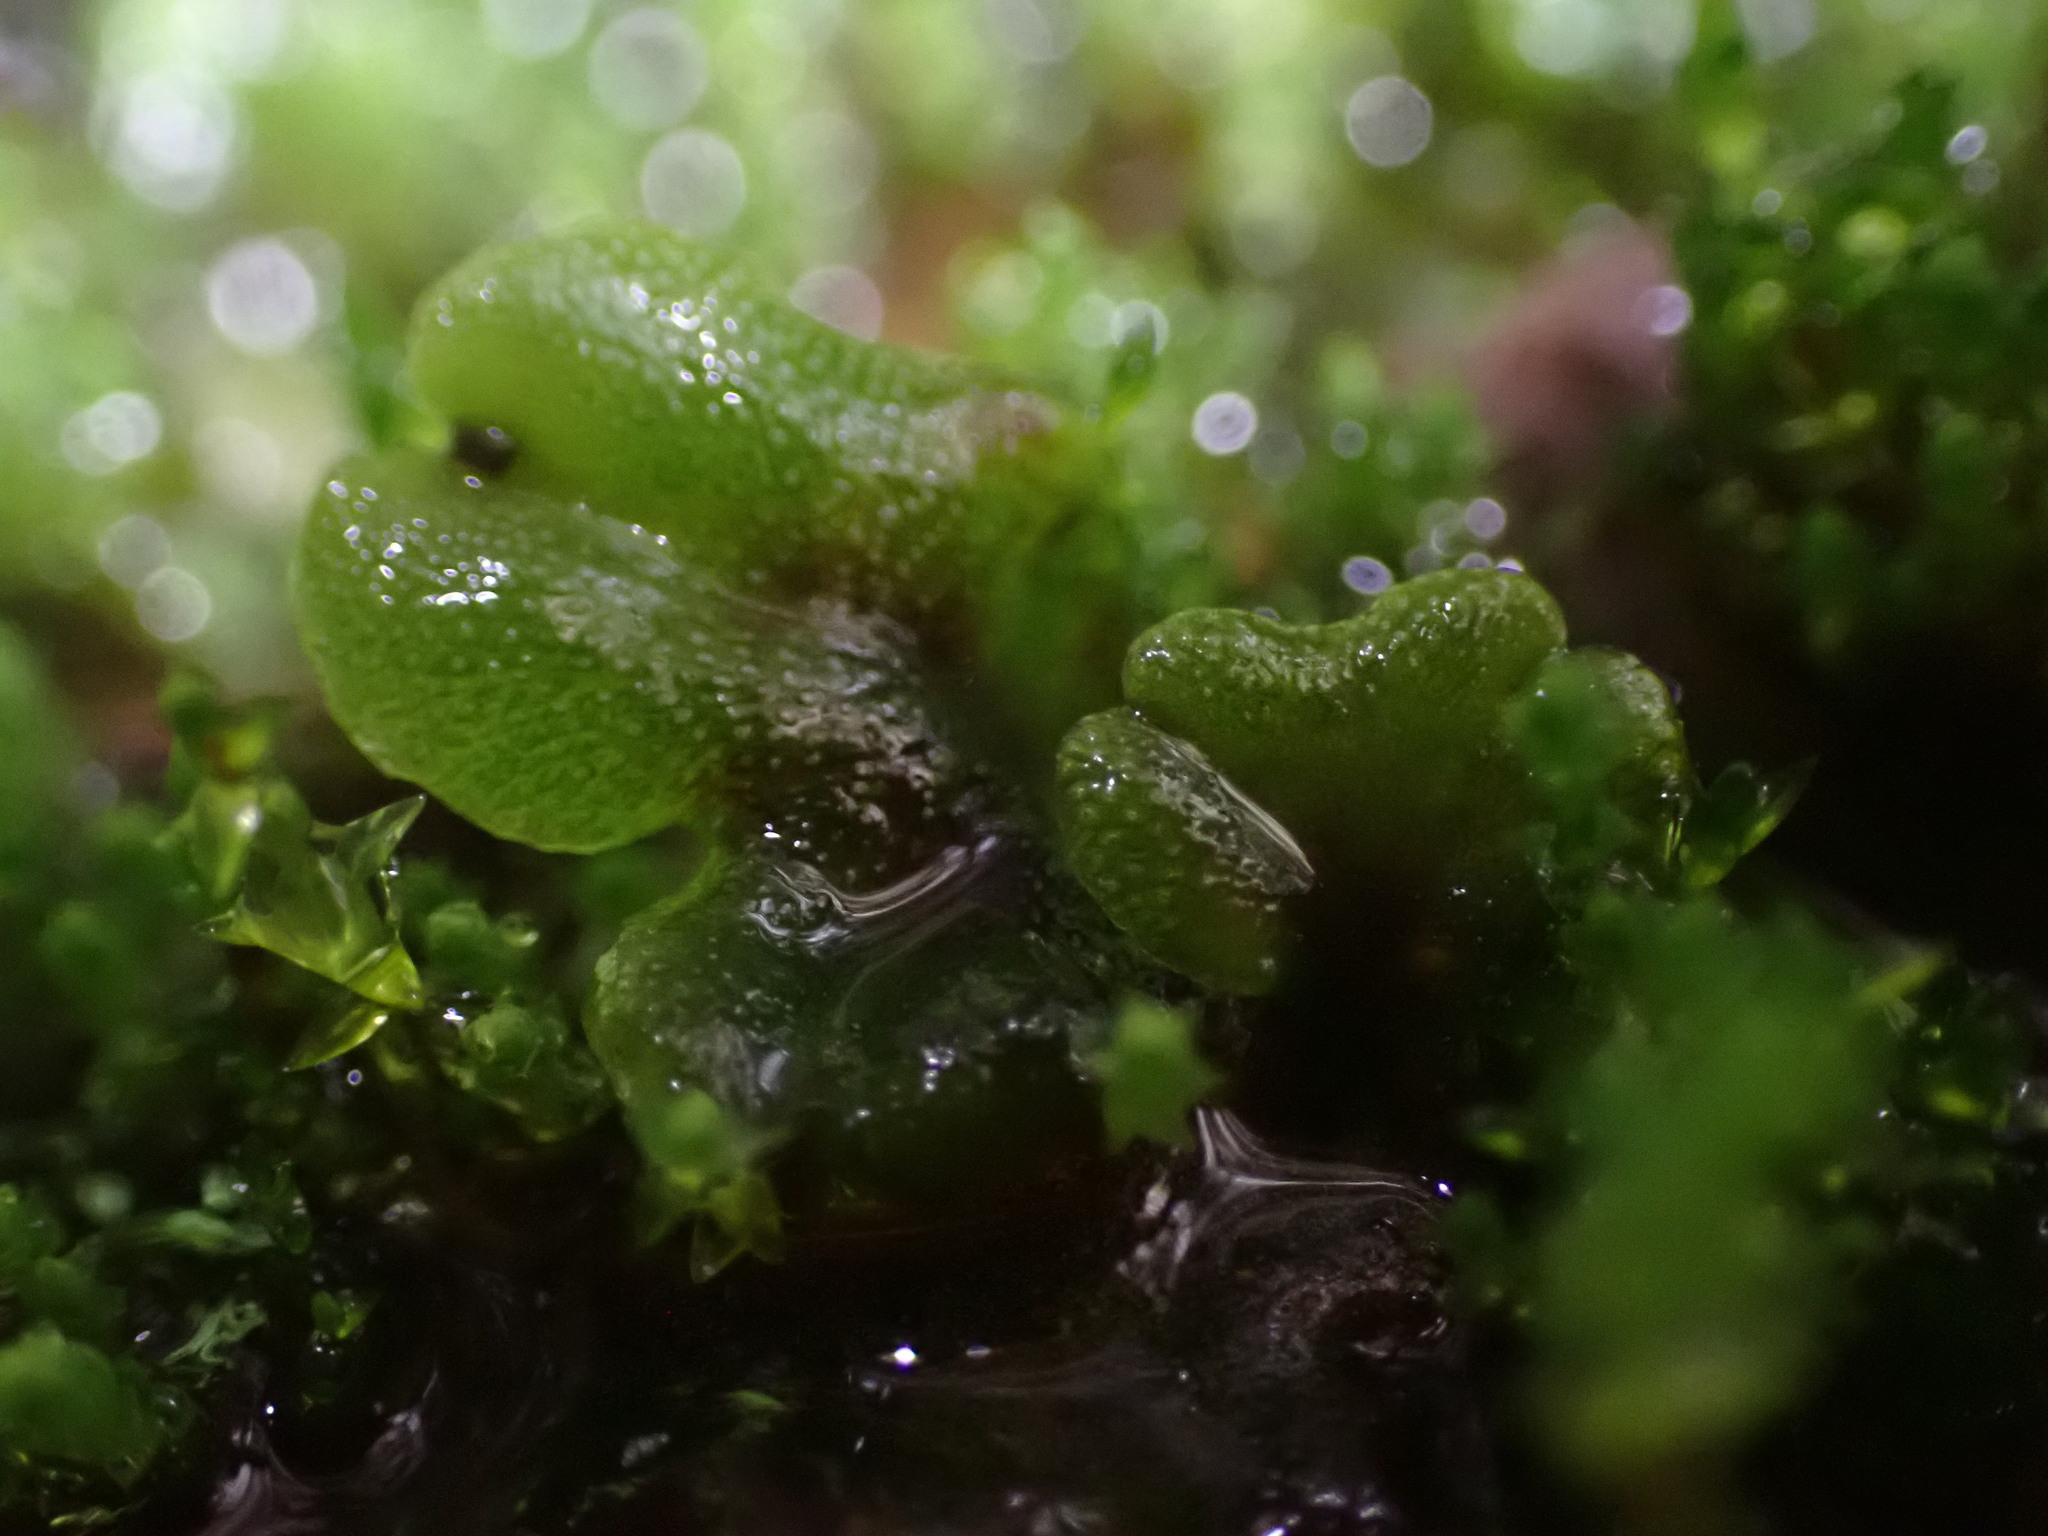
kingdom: Plantae
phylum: Marchantiophyta
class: Marchantiopsida
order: Marchantiales
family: Marchantiaceae
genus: Marchantia
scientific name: Marchantia polymorpha
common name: Common liverwort
